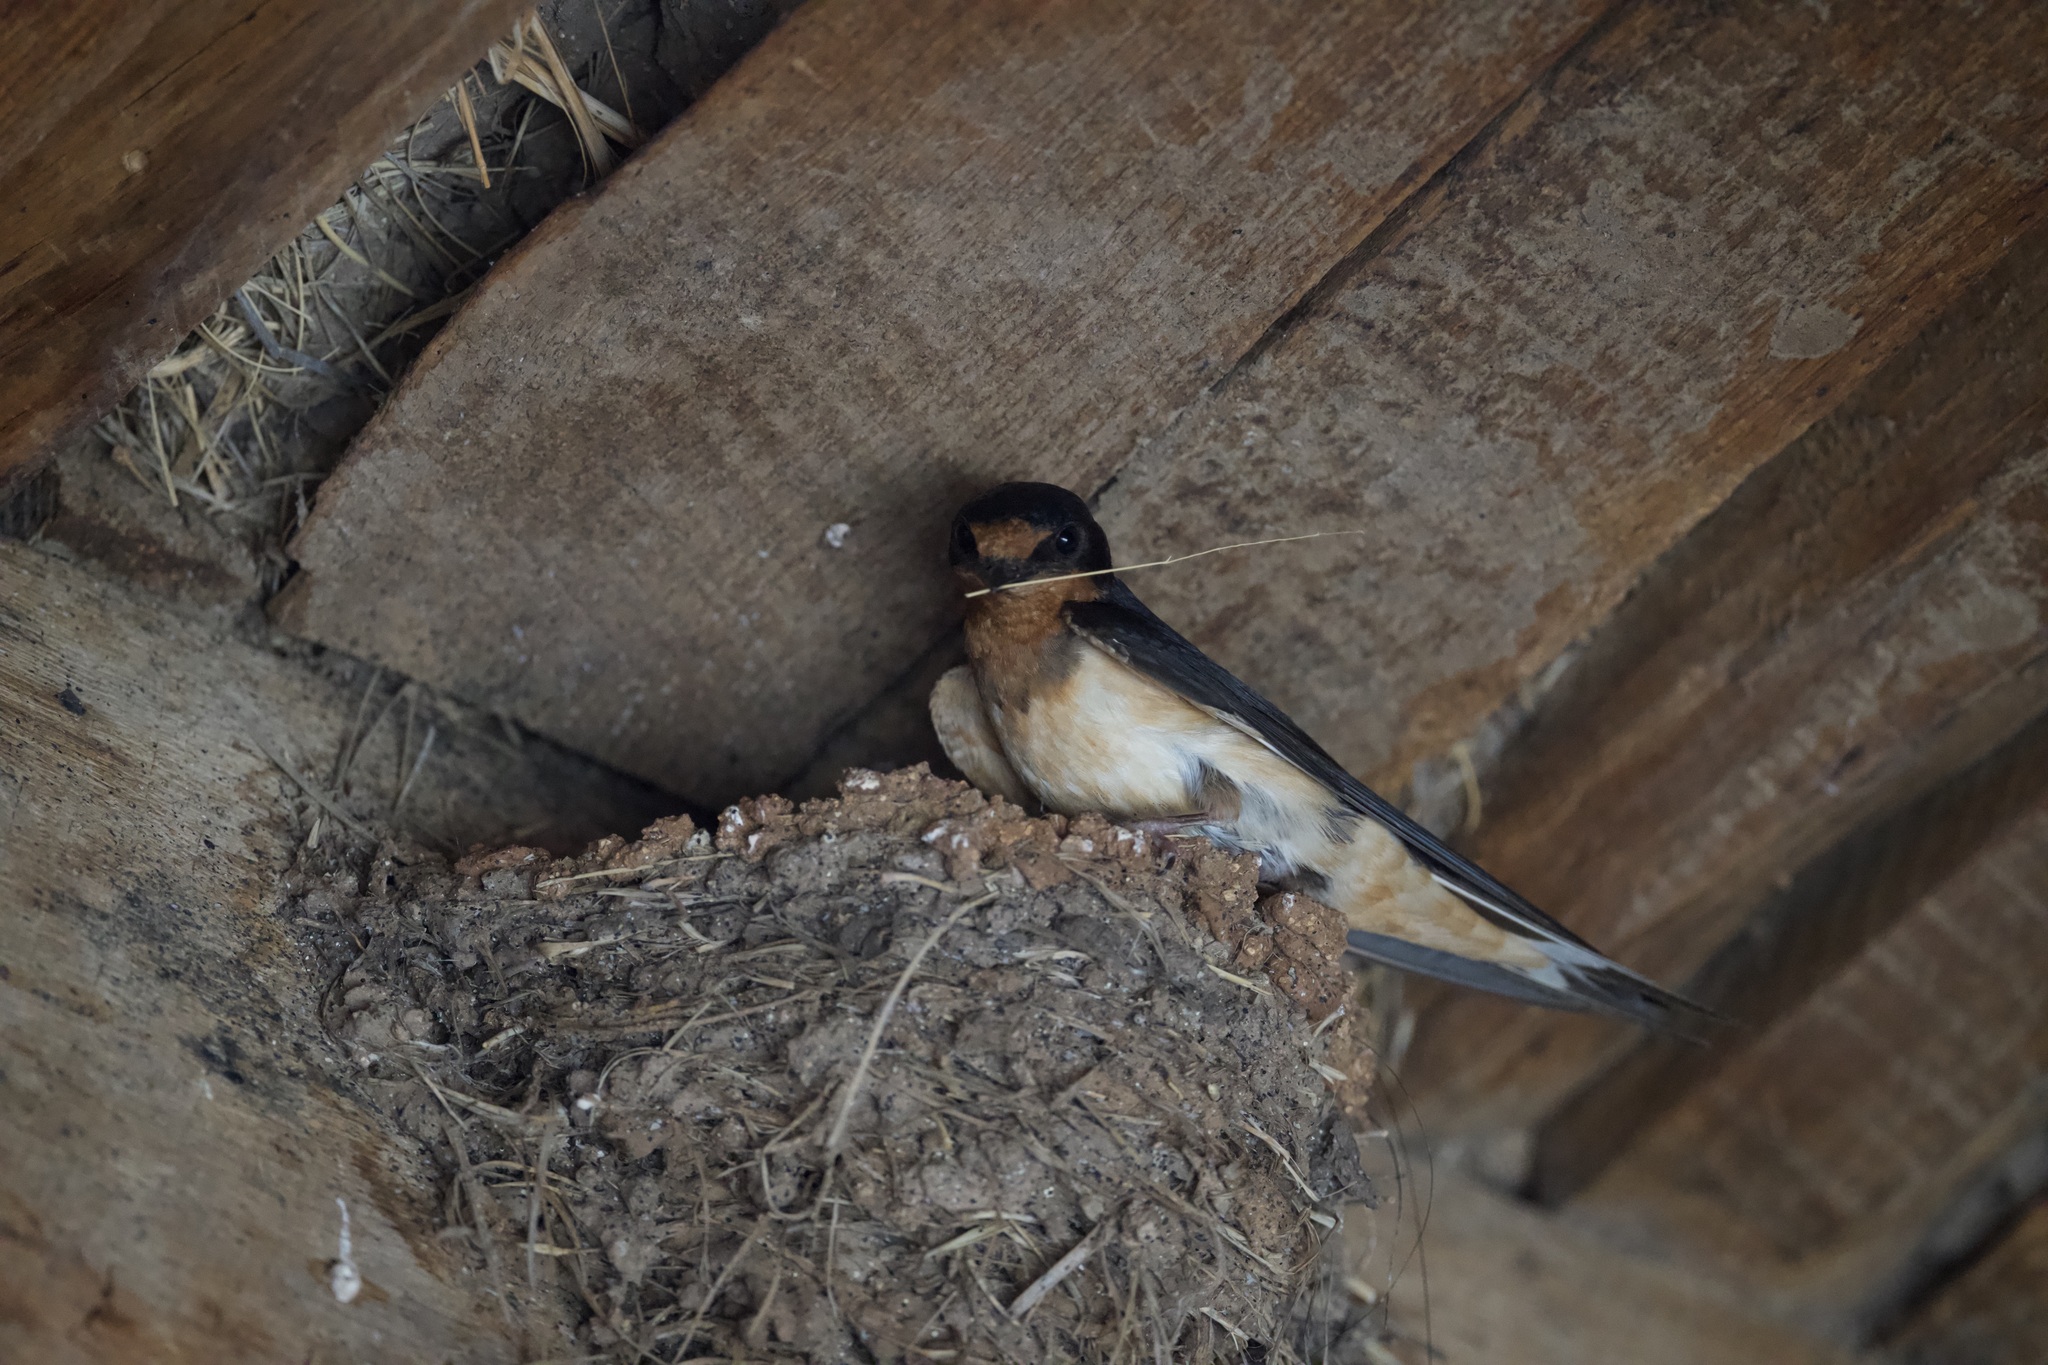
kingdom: Animalia
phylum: Chordata
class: Aves
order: Passeriformes
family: Hirundinidae
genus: Hirundo
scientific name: Hirundo rustica
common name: Barn swallow
